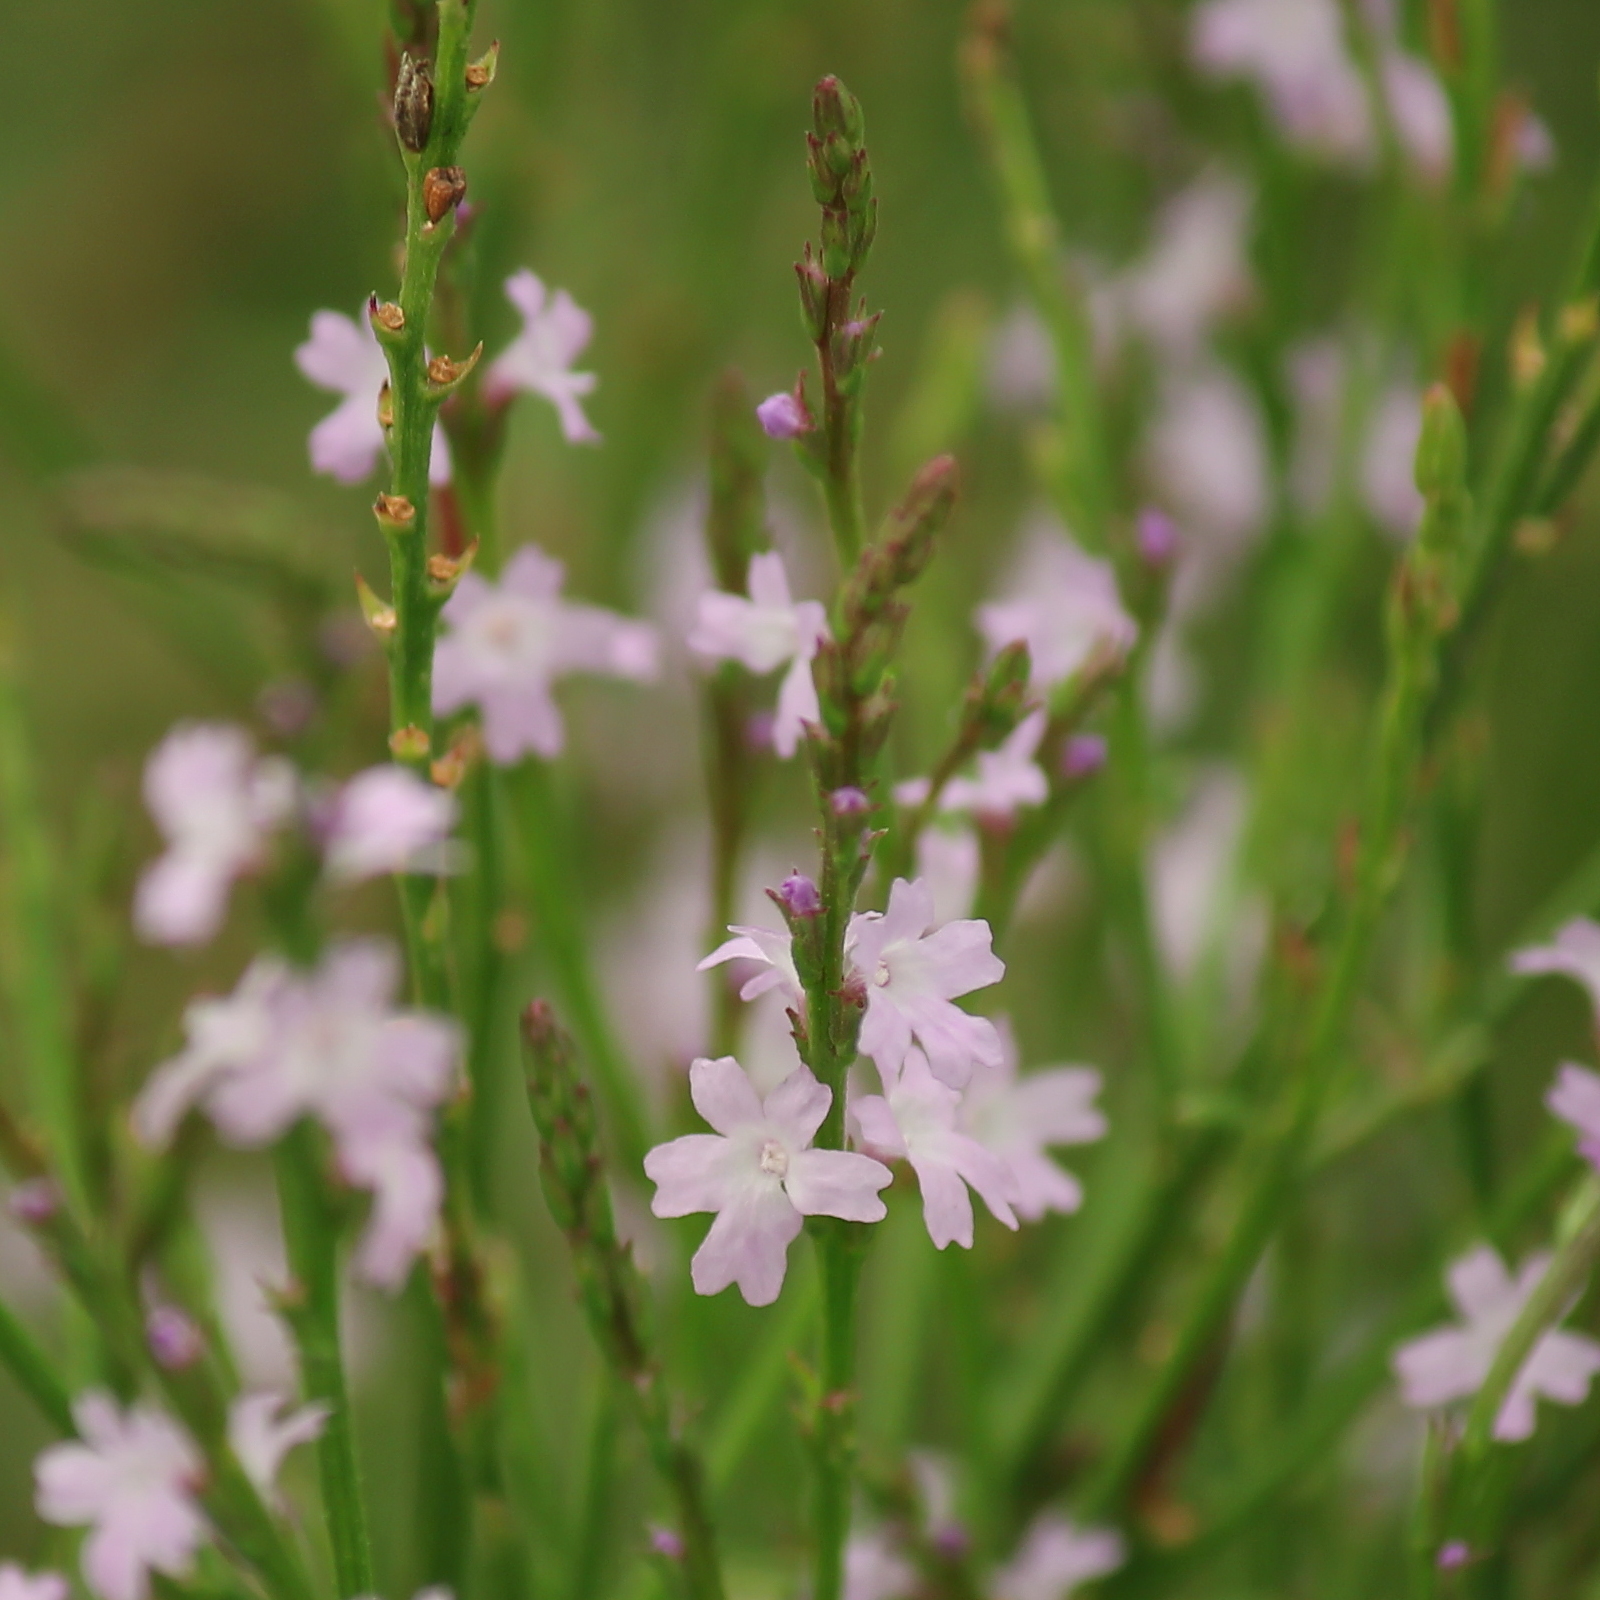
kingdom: Plantae
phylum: Tracheophyta
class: Magnoliopsida
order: Lamiales
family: Verbenaceae
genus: Verbena
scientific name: Verbena halei
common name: Texas vervain
